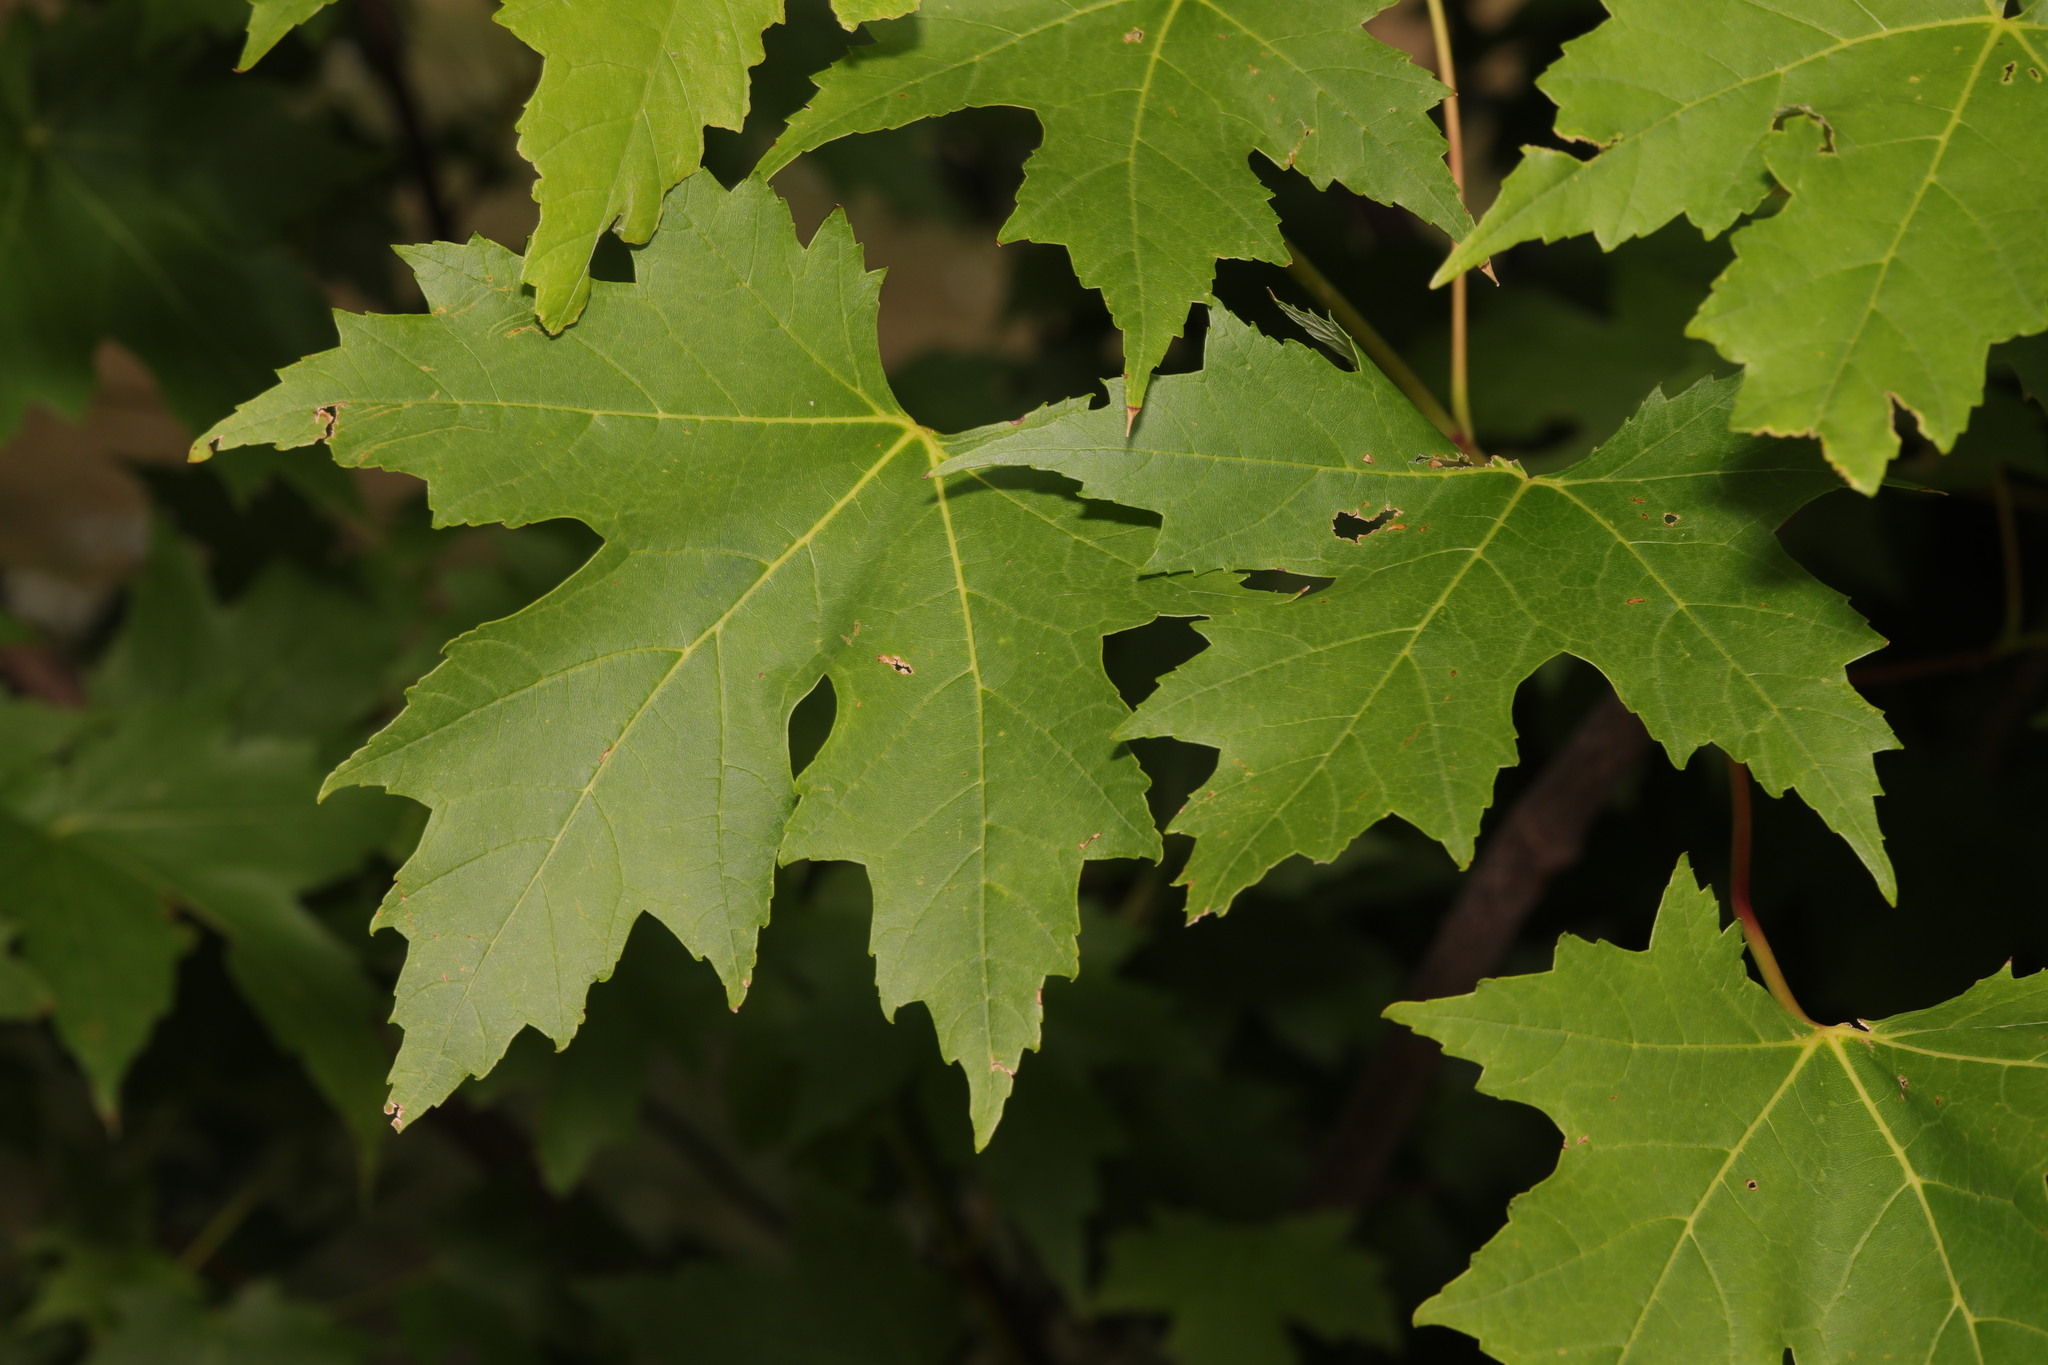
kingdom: Plantae
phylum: Tracheophyta
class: Magnoliopsida
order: Sapindales
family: Sapindaceae
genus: Acer
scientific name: Acer saccharinum
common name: Silver maple
